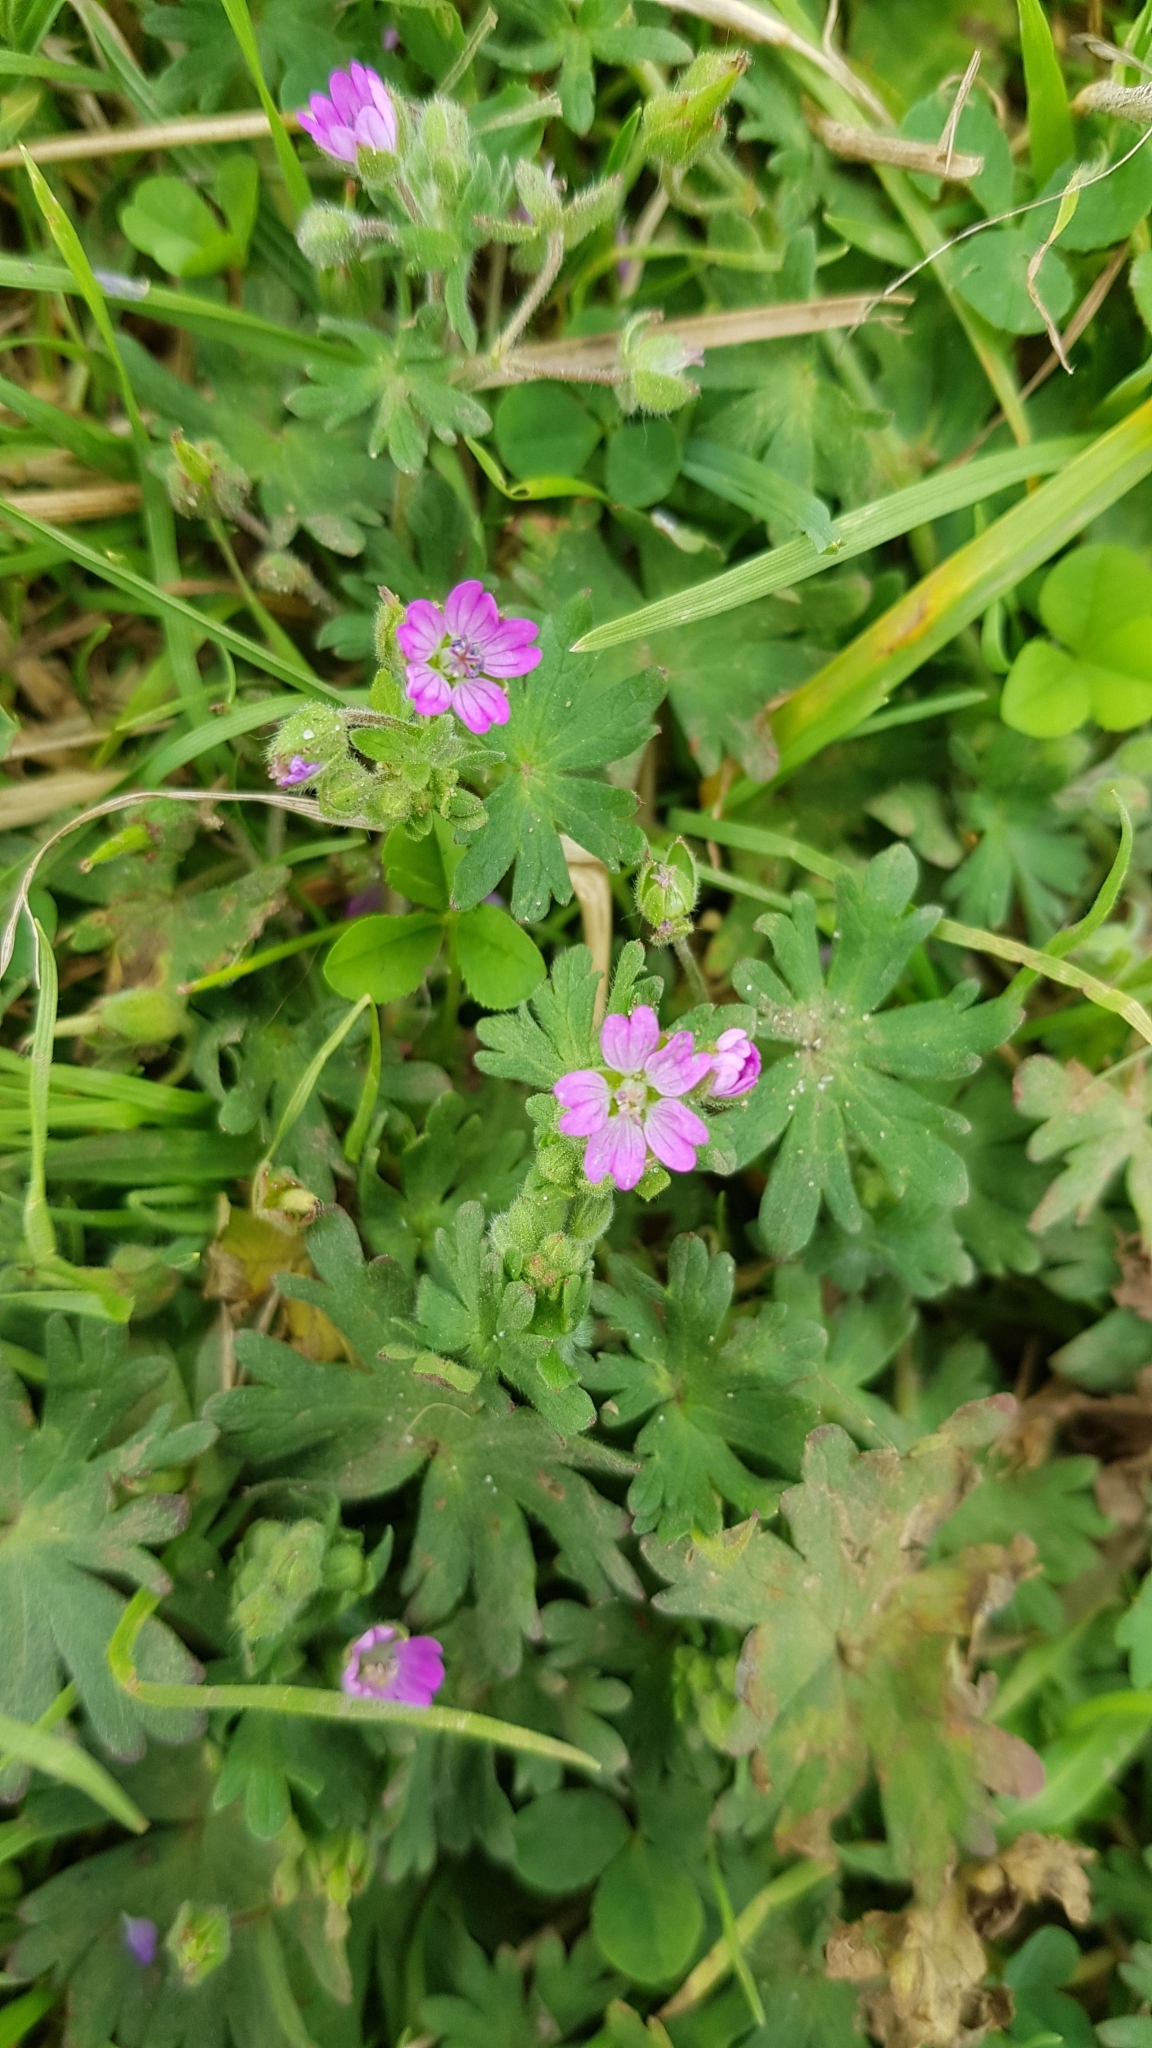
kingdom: Plantae
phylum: Tracheophyta
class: Magnoliopsida
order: Geraniales
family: Geraniaceae
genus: Geranium
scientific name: Geranium molle
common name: Dove's-foot crane's-bill
